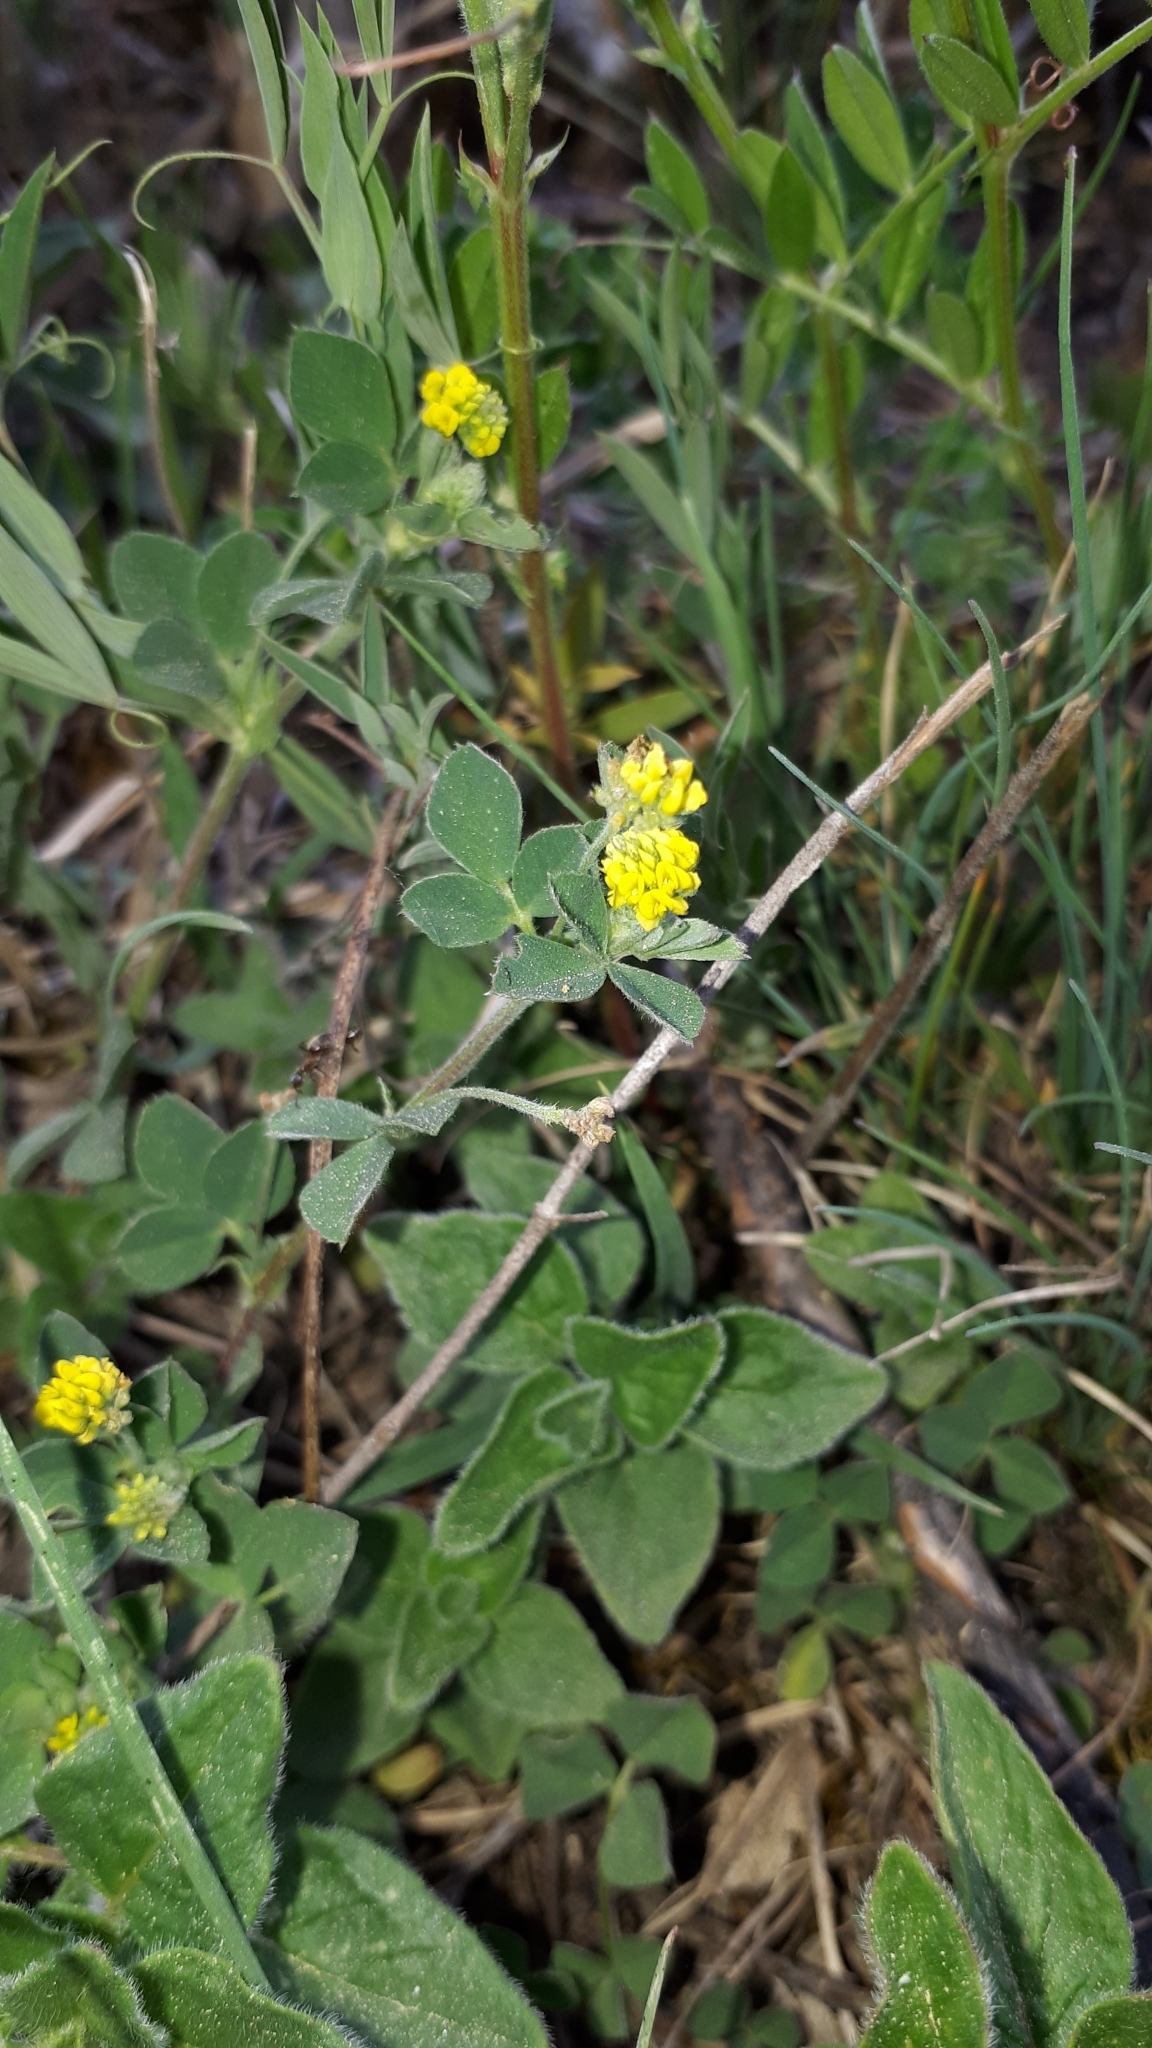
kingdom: Plantae
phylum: Tracheophyta
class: Magnoliopsida
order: Fabales
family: Fabaceae
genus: Medicago
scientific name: Medicago lupulina
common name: Black medick
